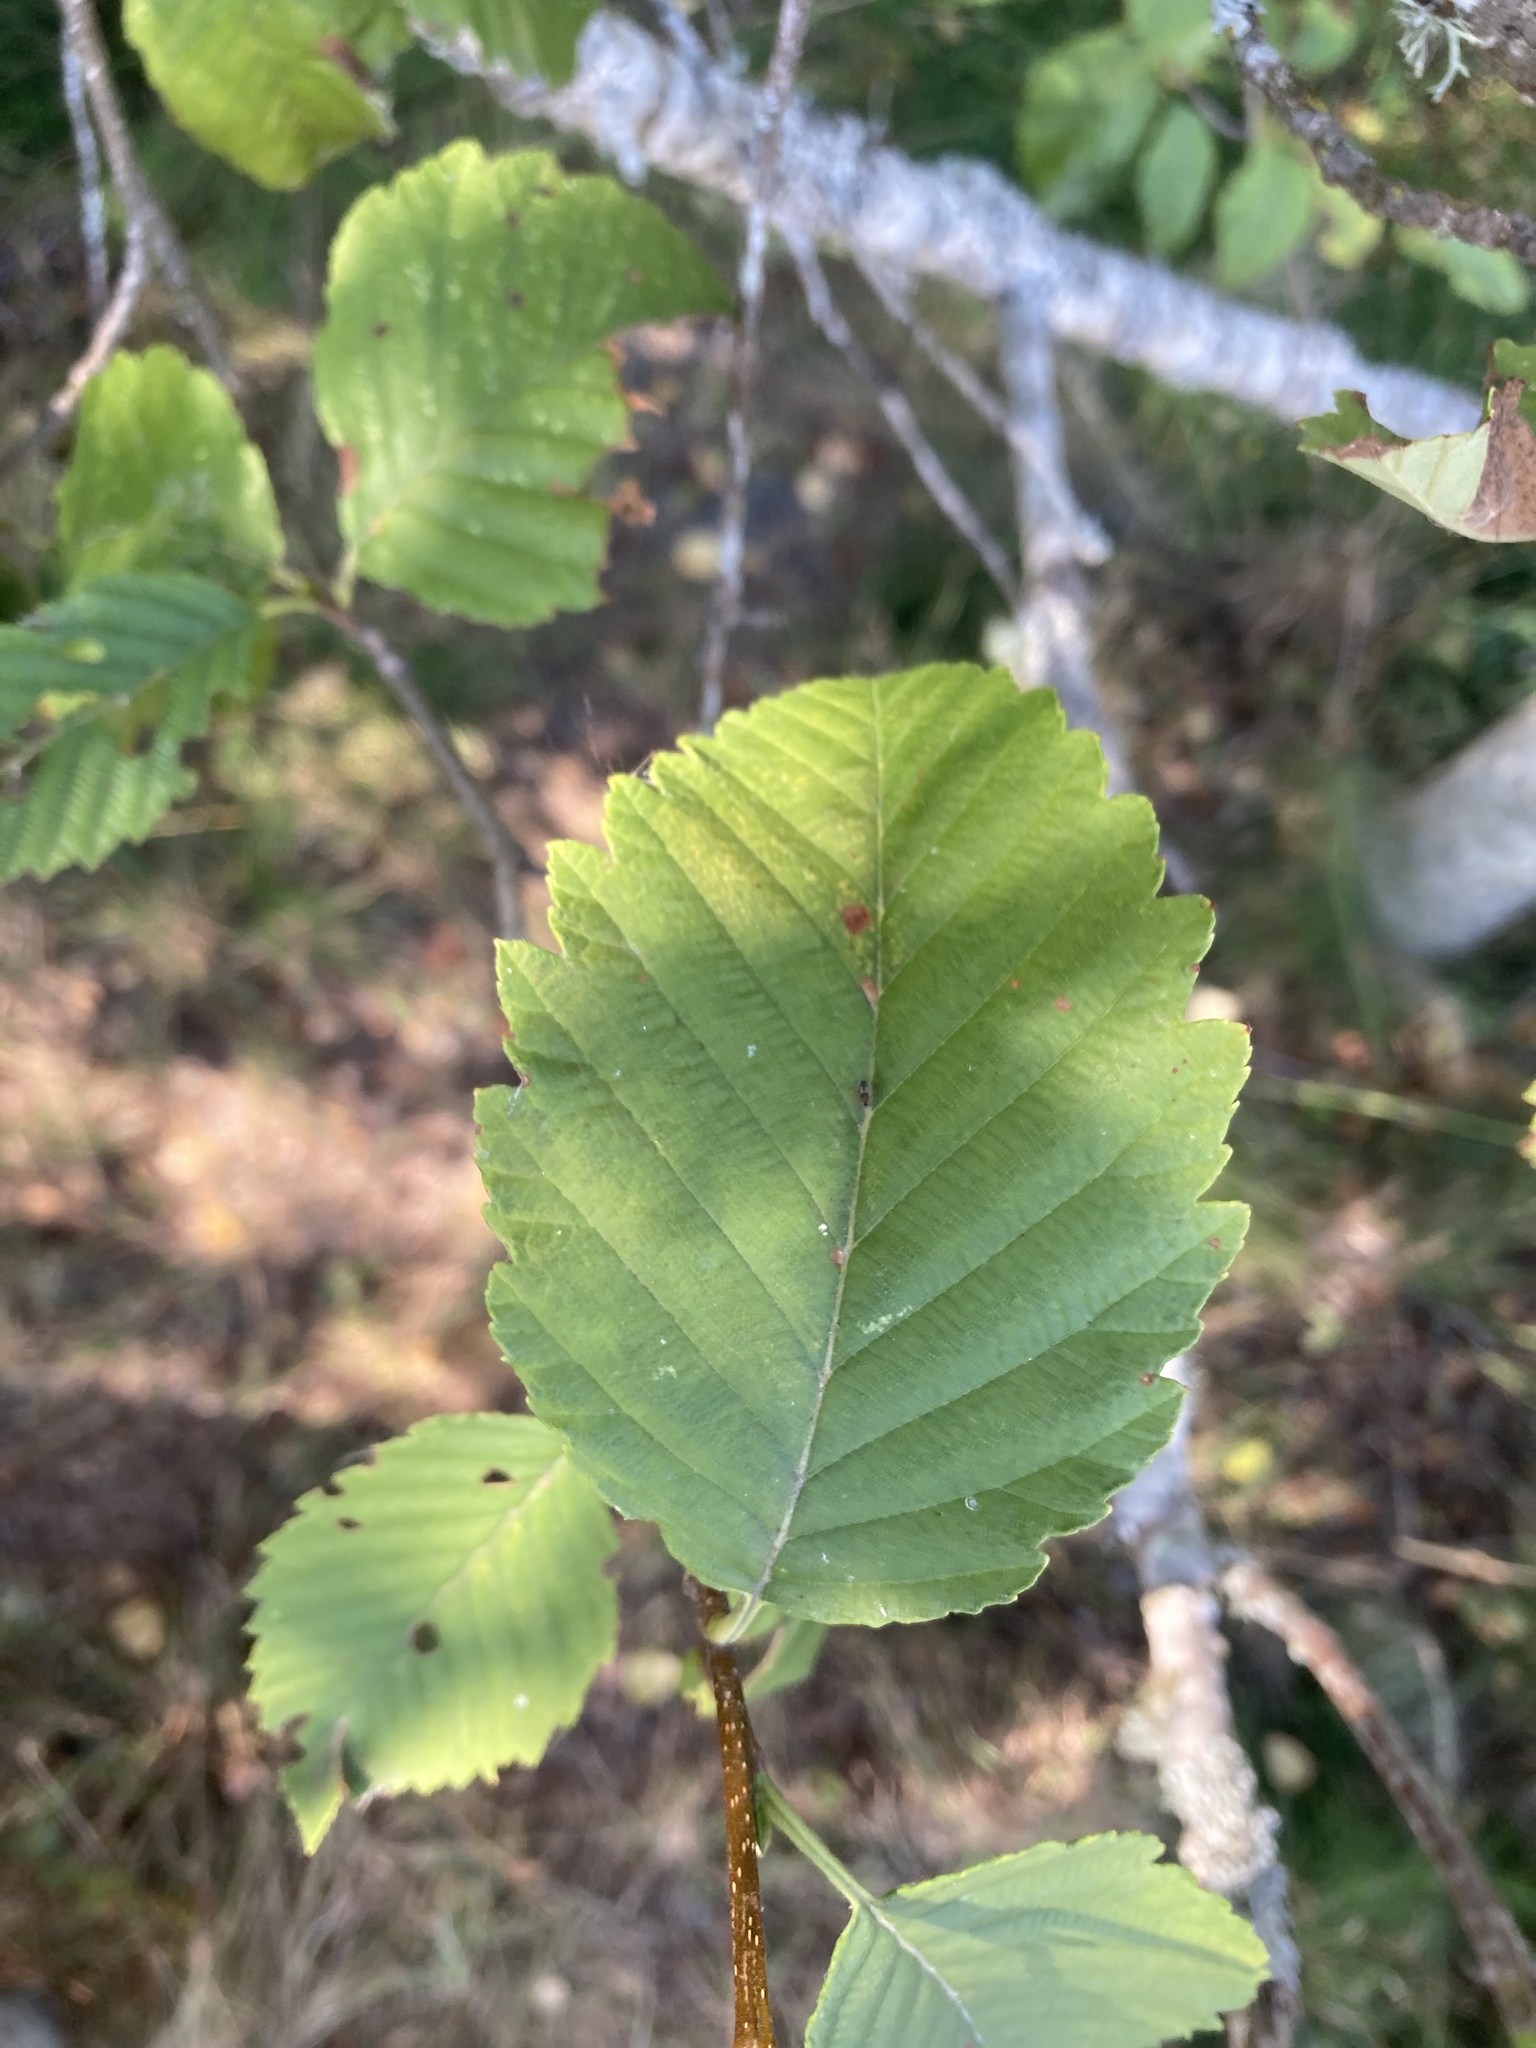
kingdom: Plantae
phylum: Tracheophyta
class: Magnoliopsida
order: Fagales
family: Betulaceae
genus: Alnus
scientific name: Alnus rubra
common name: Red alder
